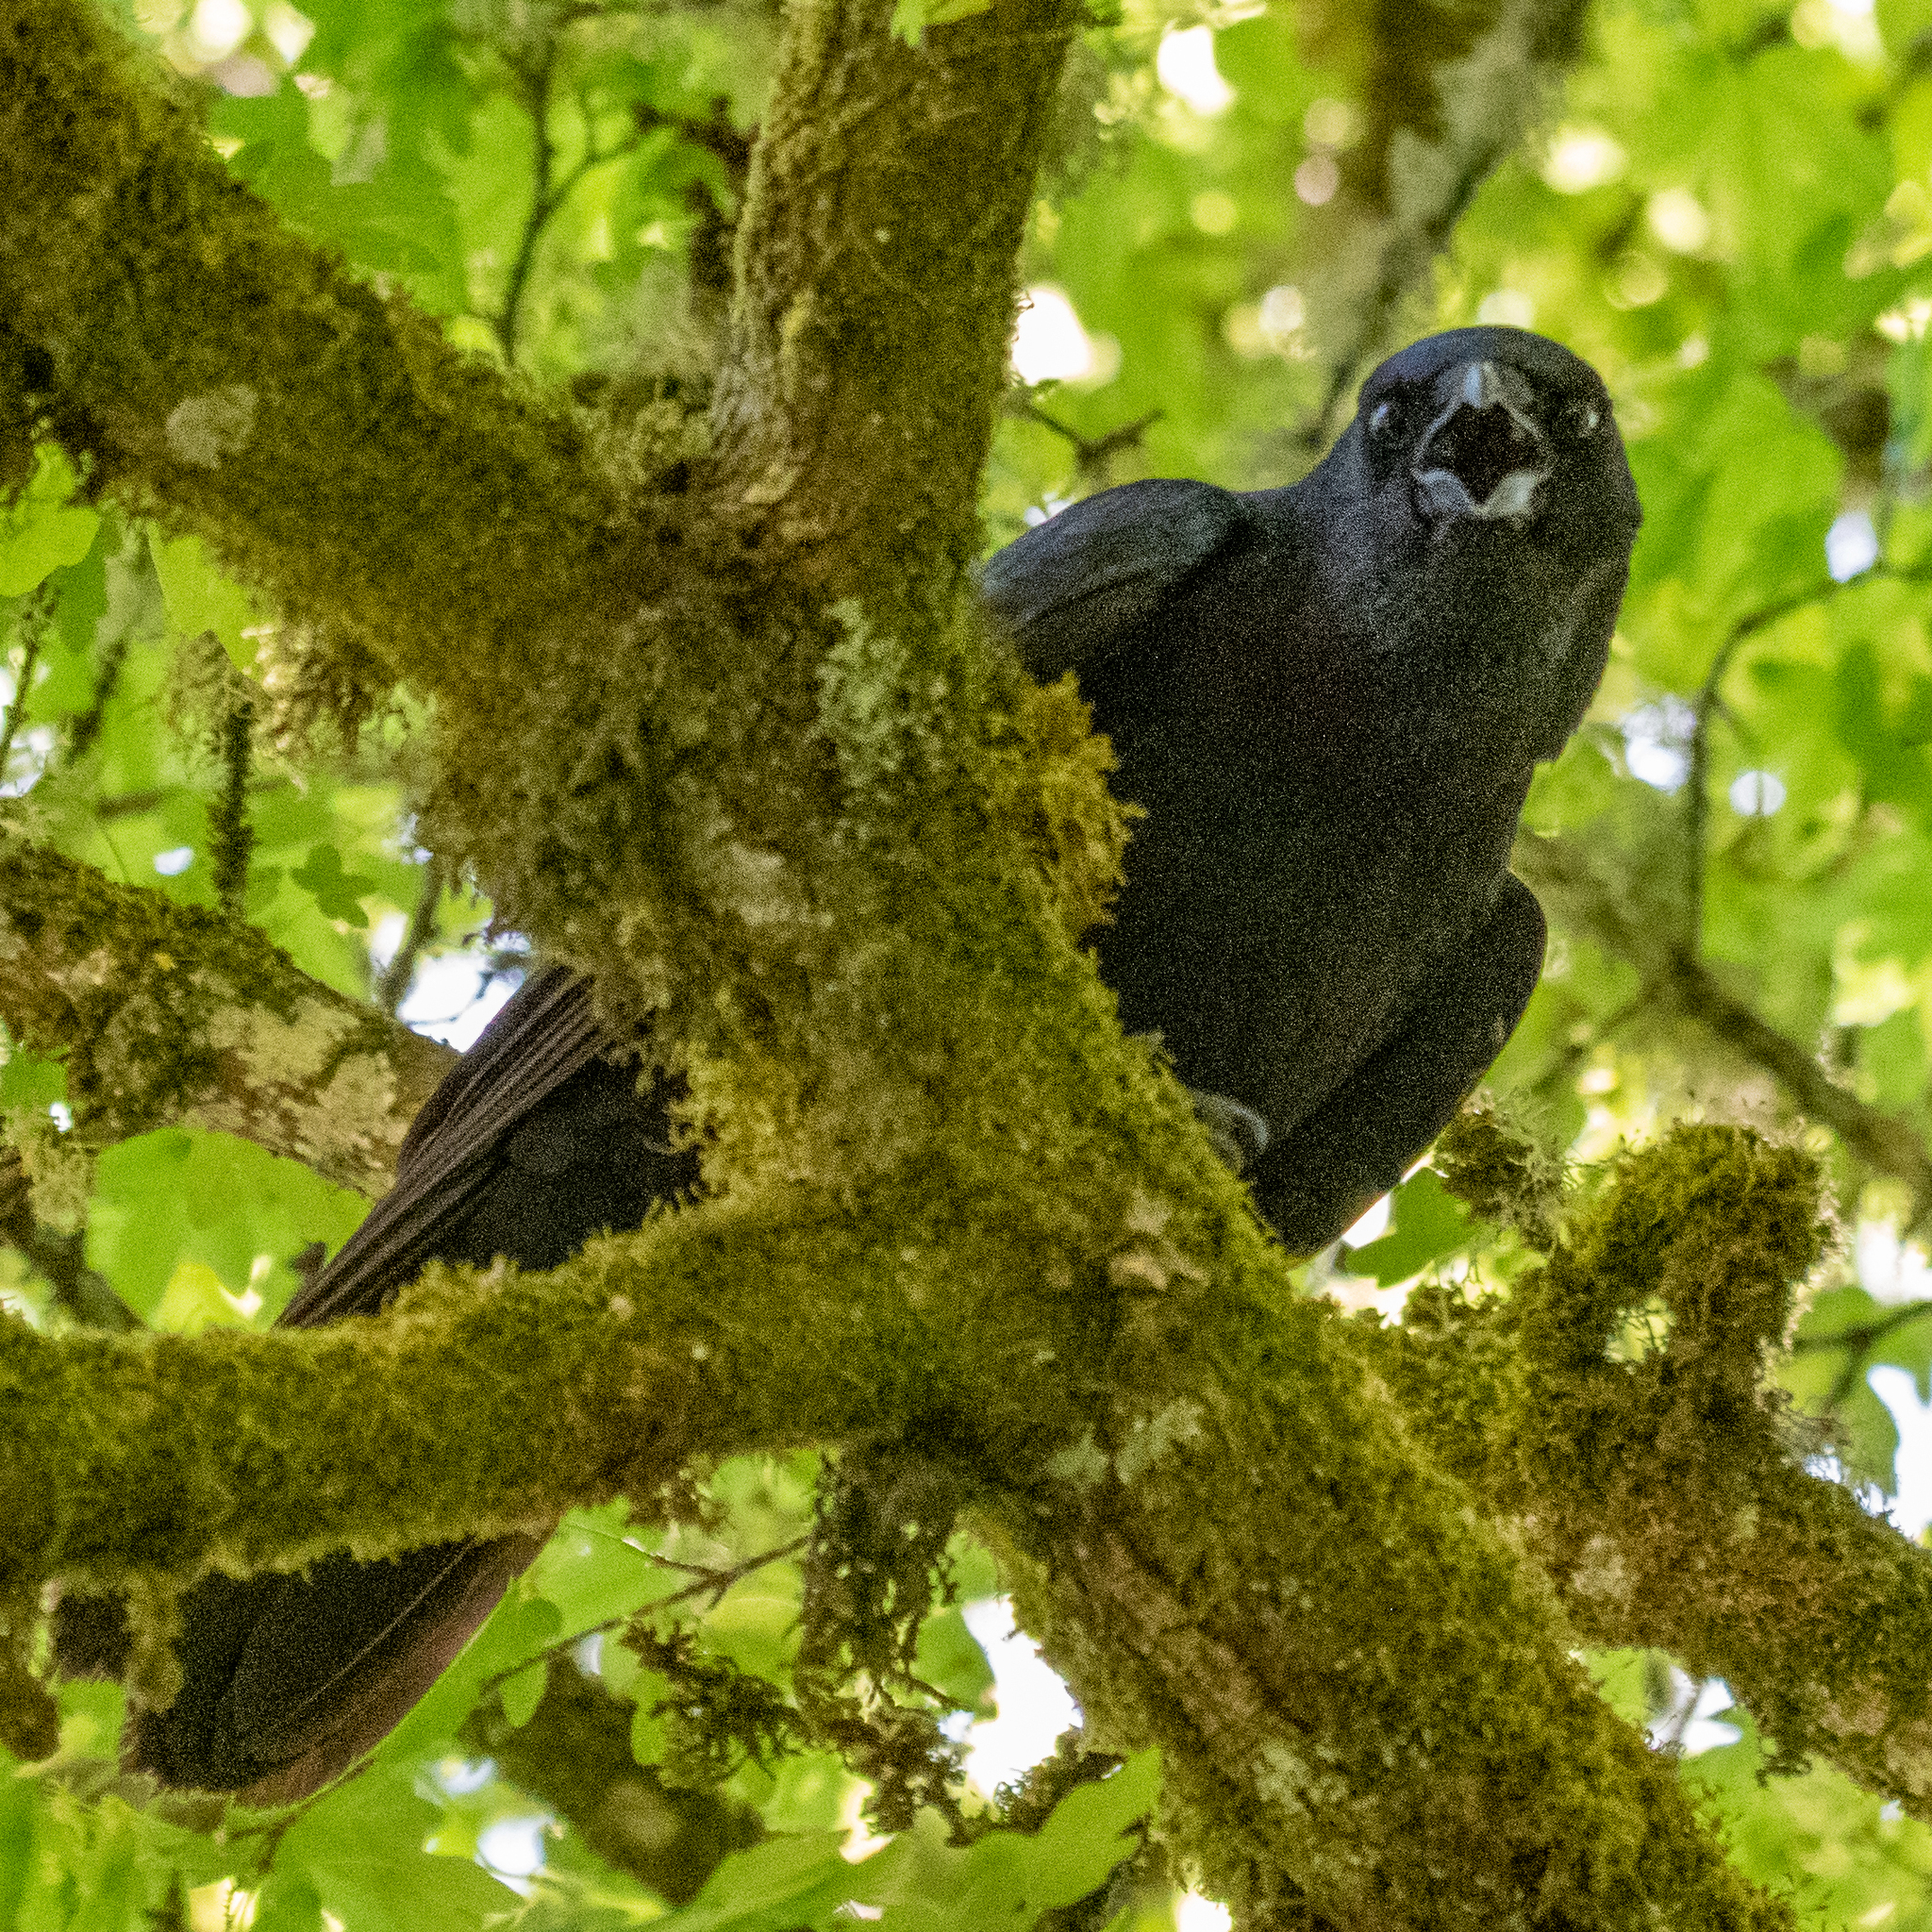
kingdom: Animalia
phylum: Chordata
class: Aves
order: Passeriformes
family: Corvidae
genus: Corvus
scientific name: Corvus brachyrhynchos
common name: American crow
